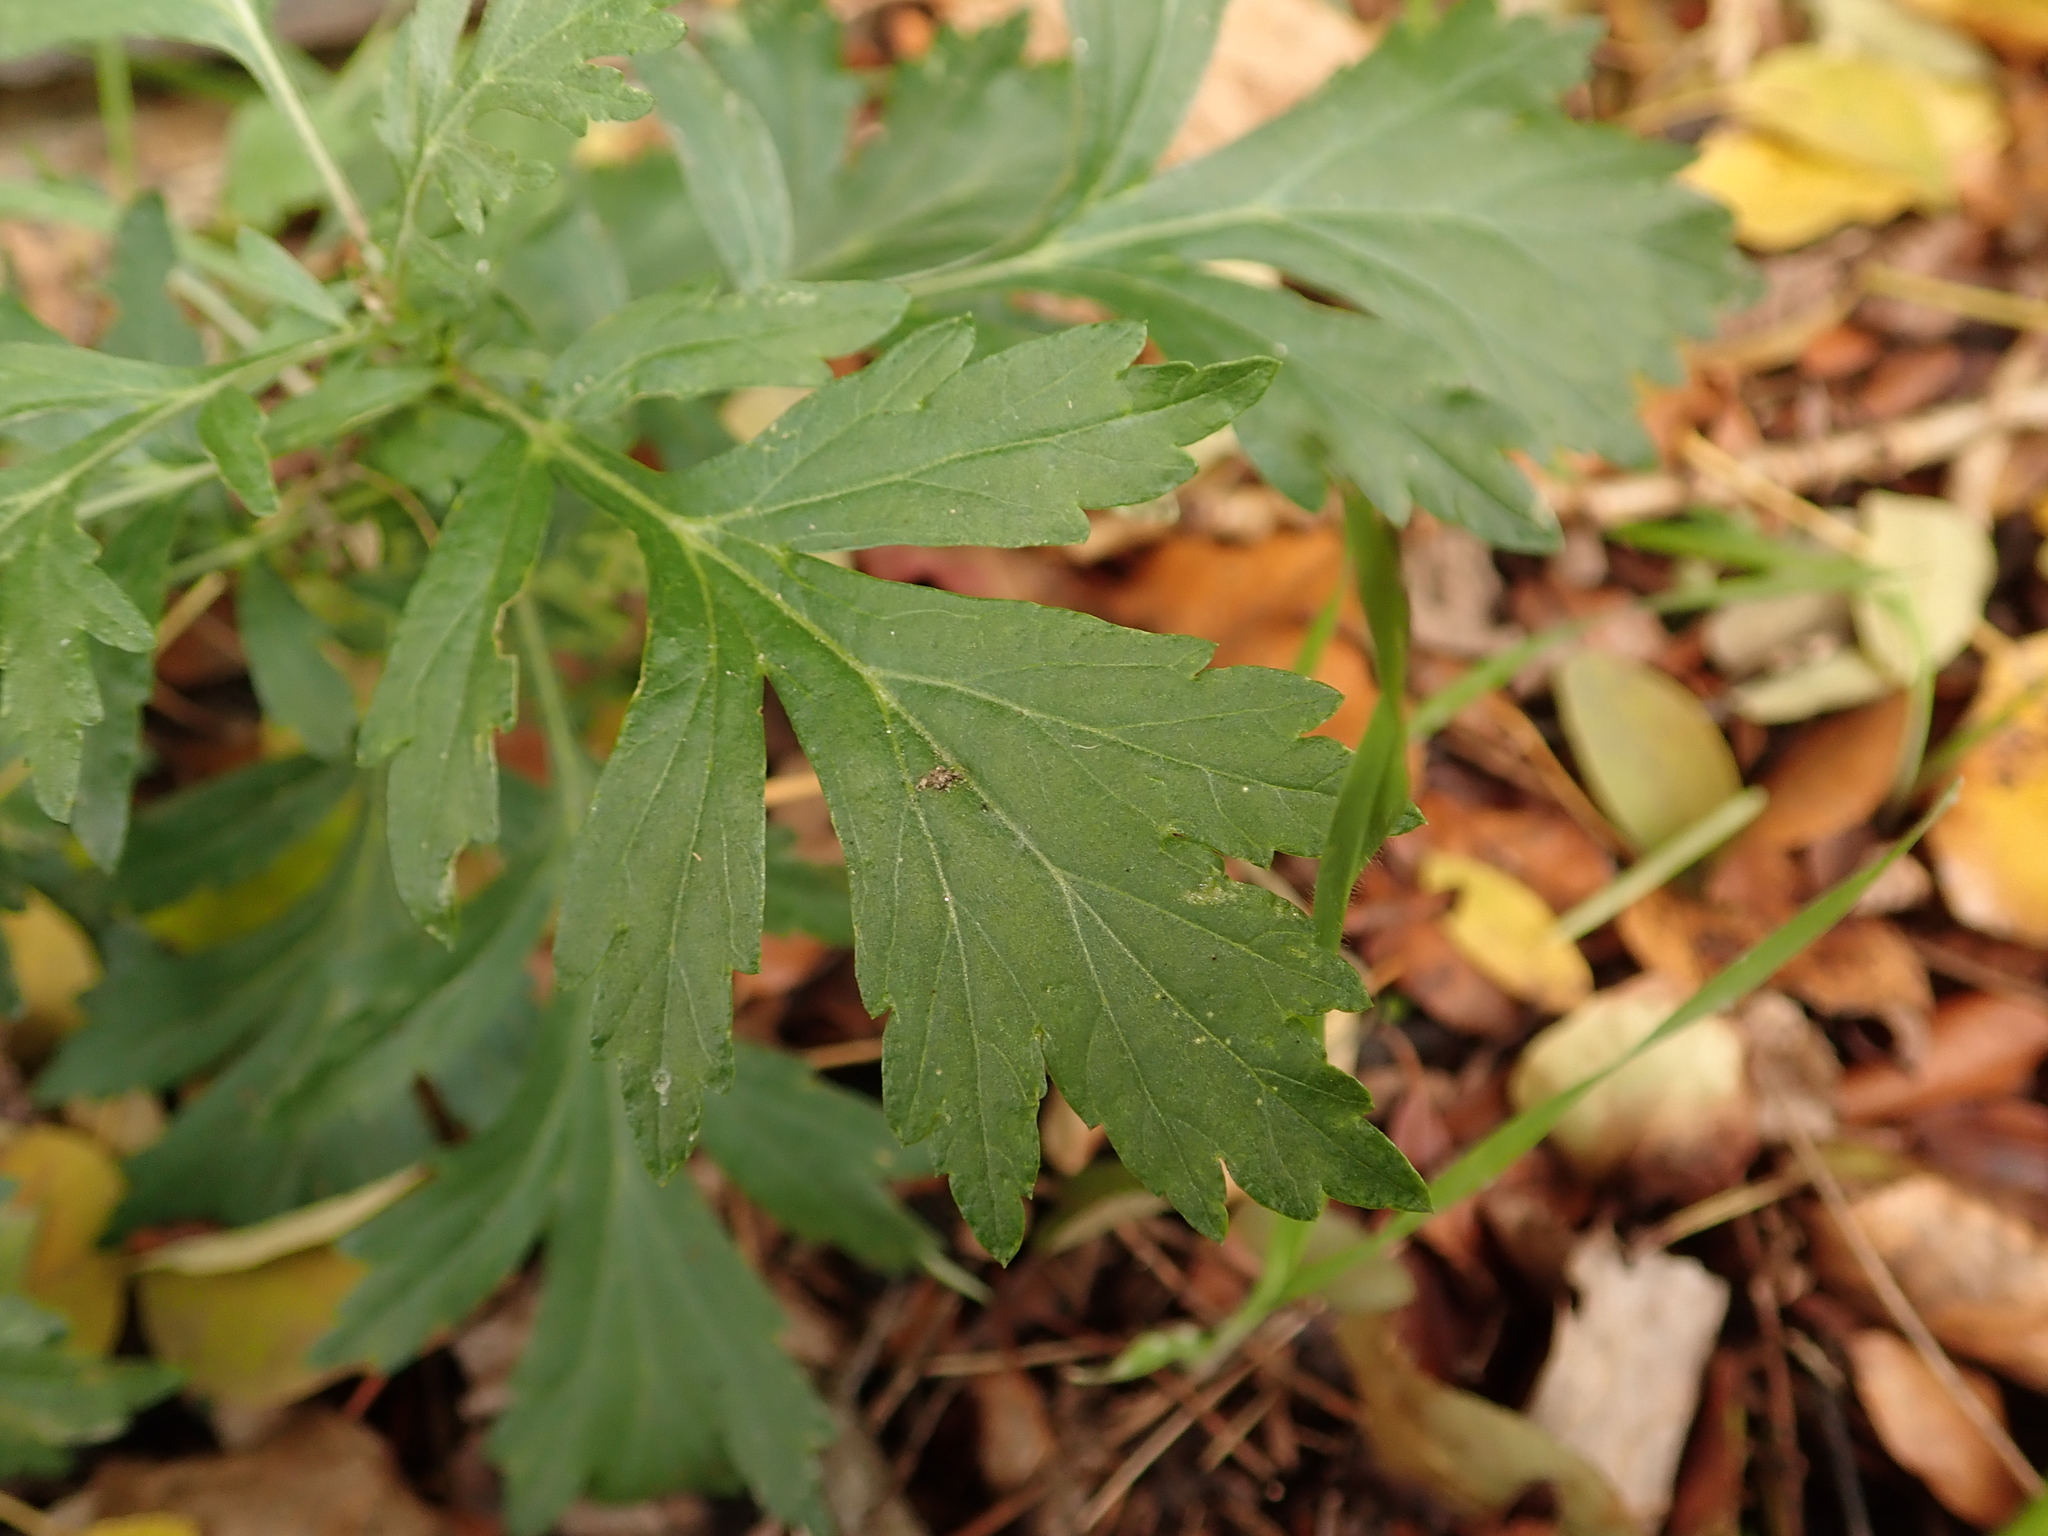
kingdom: Plantae
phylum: Tracheophyta
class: Magnoliopsida
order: Asterales
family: Asteraceae
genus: Artemisia
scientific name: Artemisia vulgaris
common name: Mugwort
